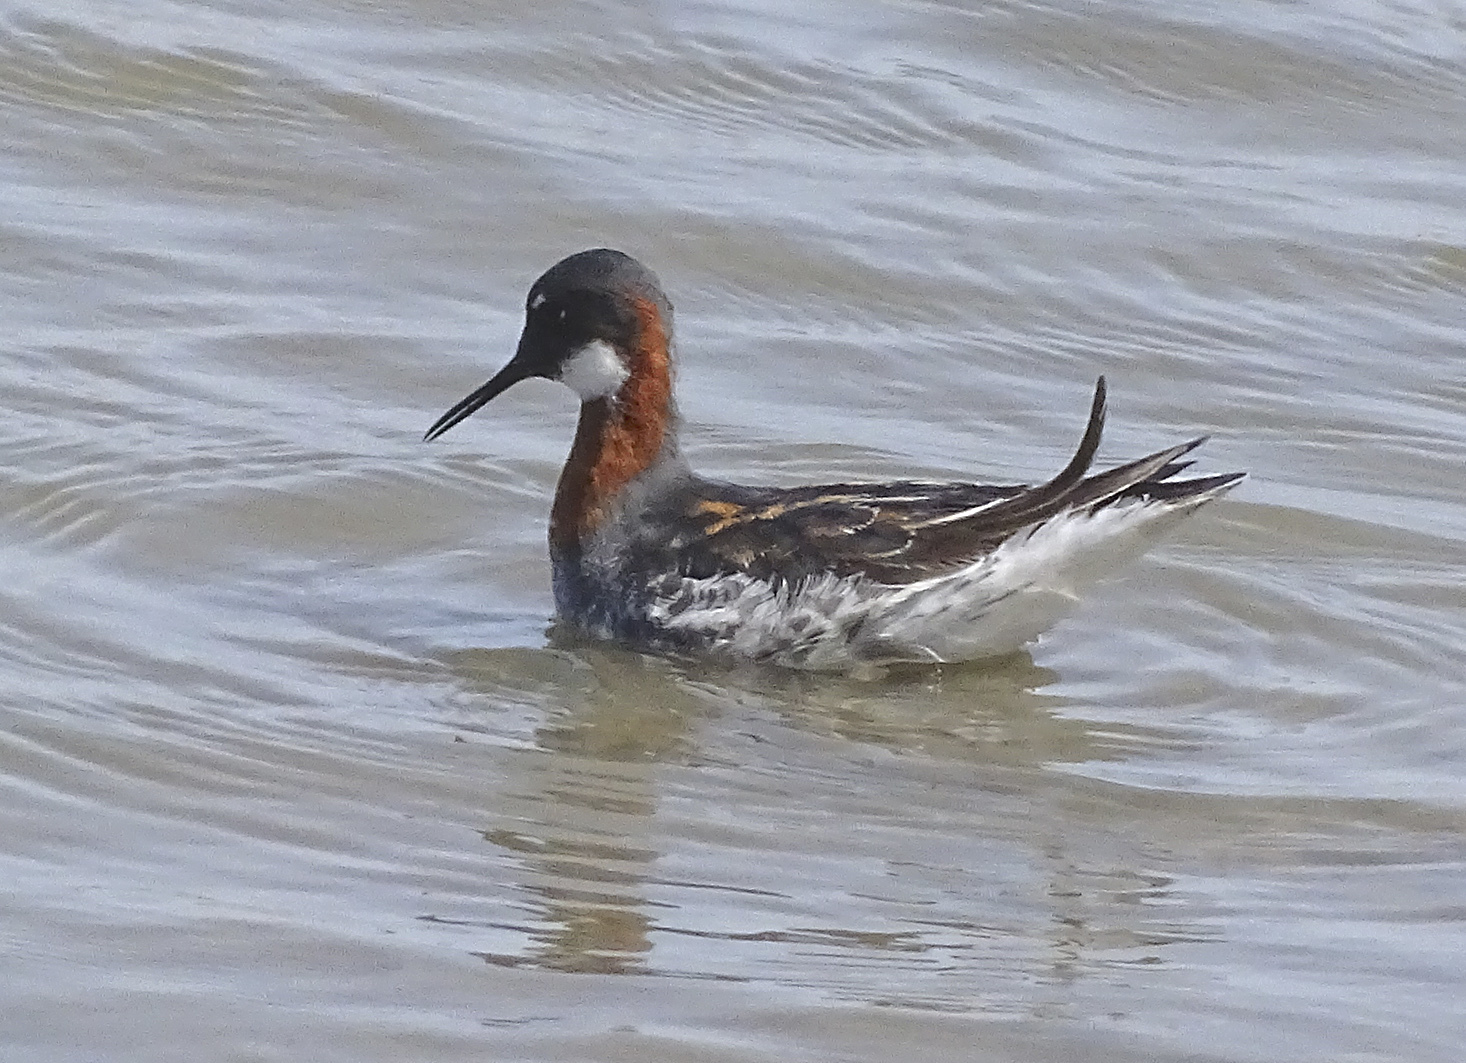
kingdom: Animalia
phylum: Chordata
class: Aves
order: Charadriiformes
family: Scolopacidae
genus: Phalaropus
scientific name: Phalaropus lobatus
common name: Red-necked phalarope
